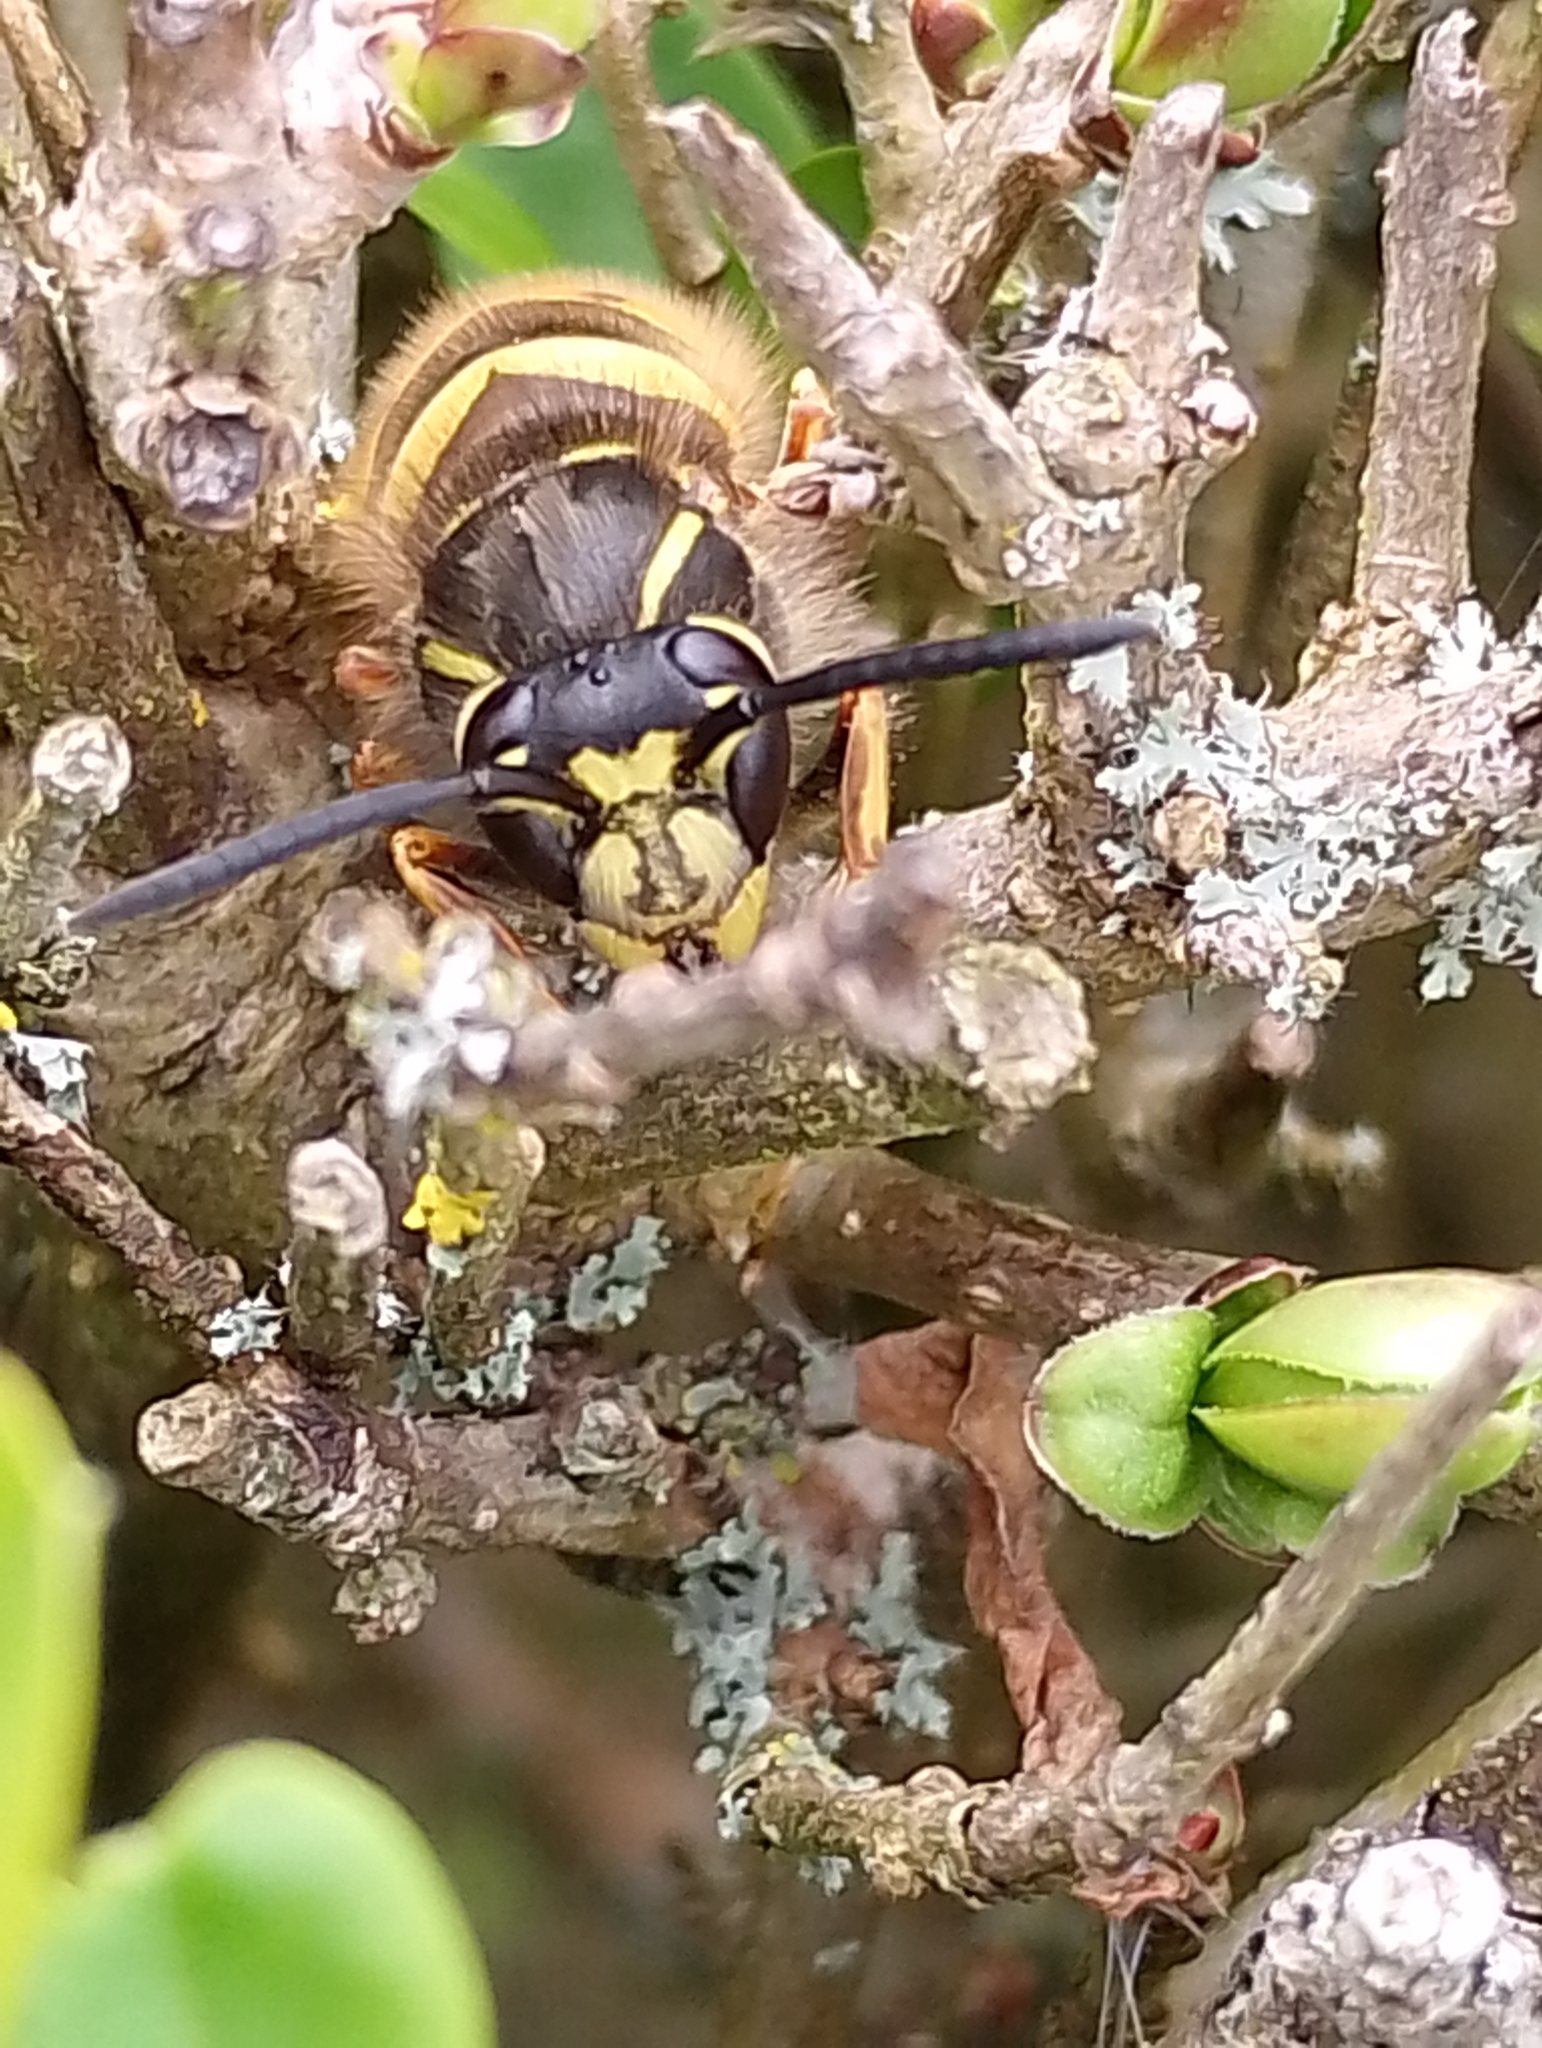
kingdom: Animalia
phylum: Arthropoda
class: Insecta
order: Hymenoptera
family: Vespidae
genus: Vespula
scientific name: Vespula vulgaris
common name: Common wasp
